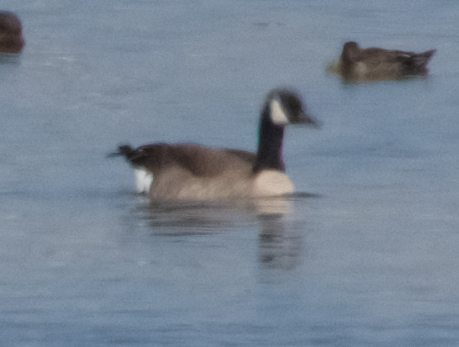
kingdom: Animalia
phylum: Chordata
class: Aves
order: Anseriformes
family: Anatidae
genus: Branta
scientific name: Branta canadensis
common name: Canada goose
